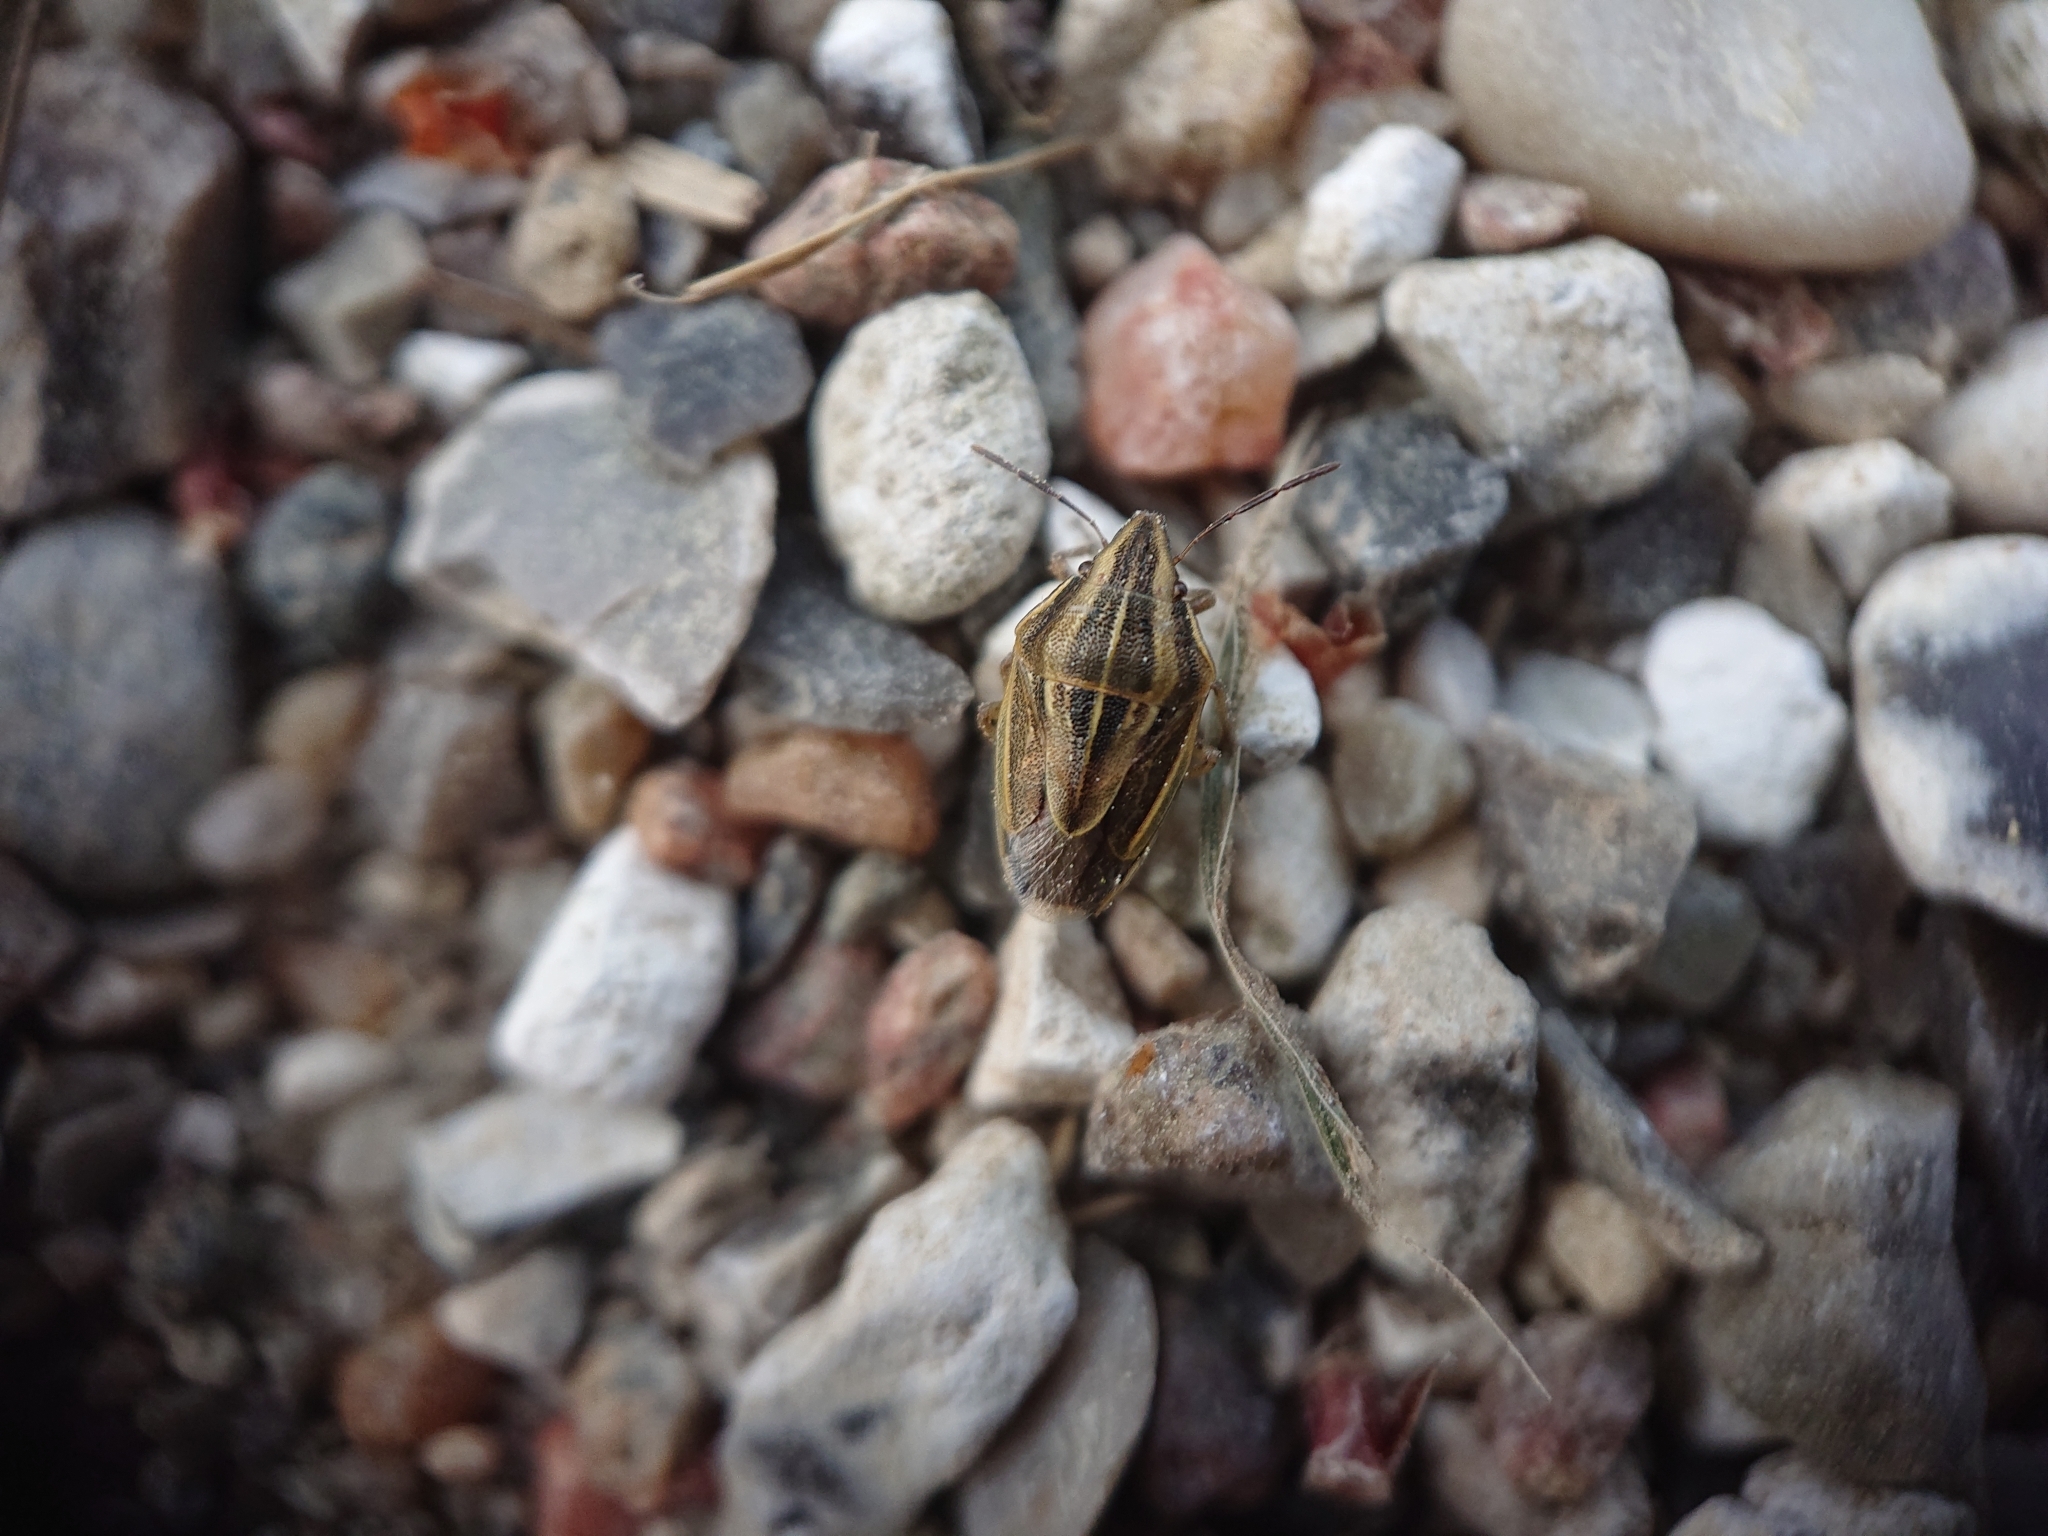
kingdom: Animalia
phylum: Arthropoda
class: Insecta
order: Hemiptera
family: Pentatomidae
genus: Aelia
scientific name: Aelia acuminata
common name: Bishop's mitre
